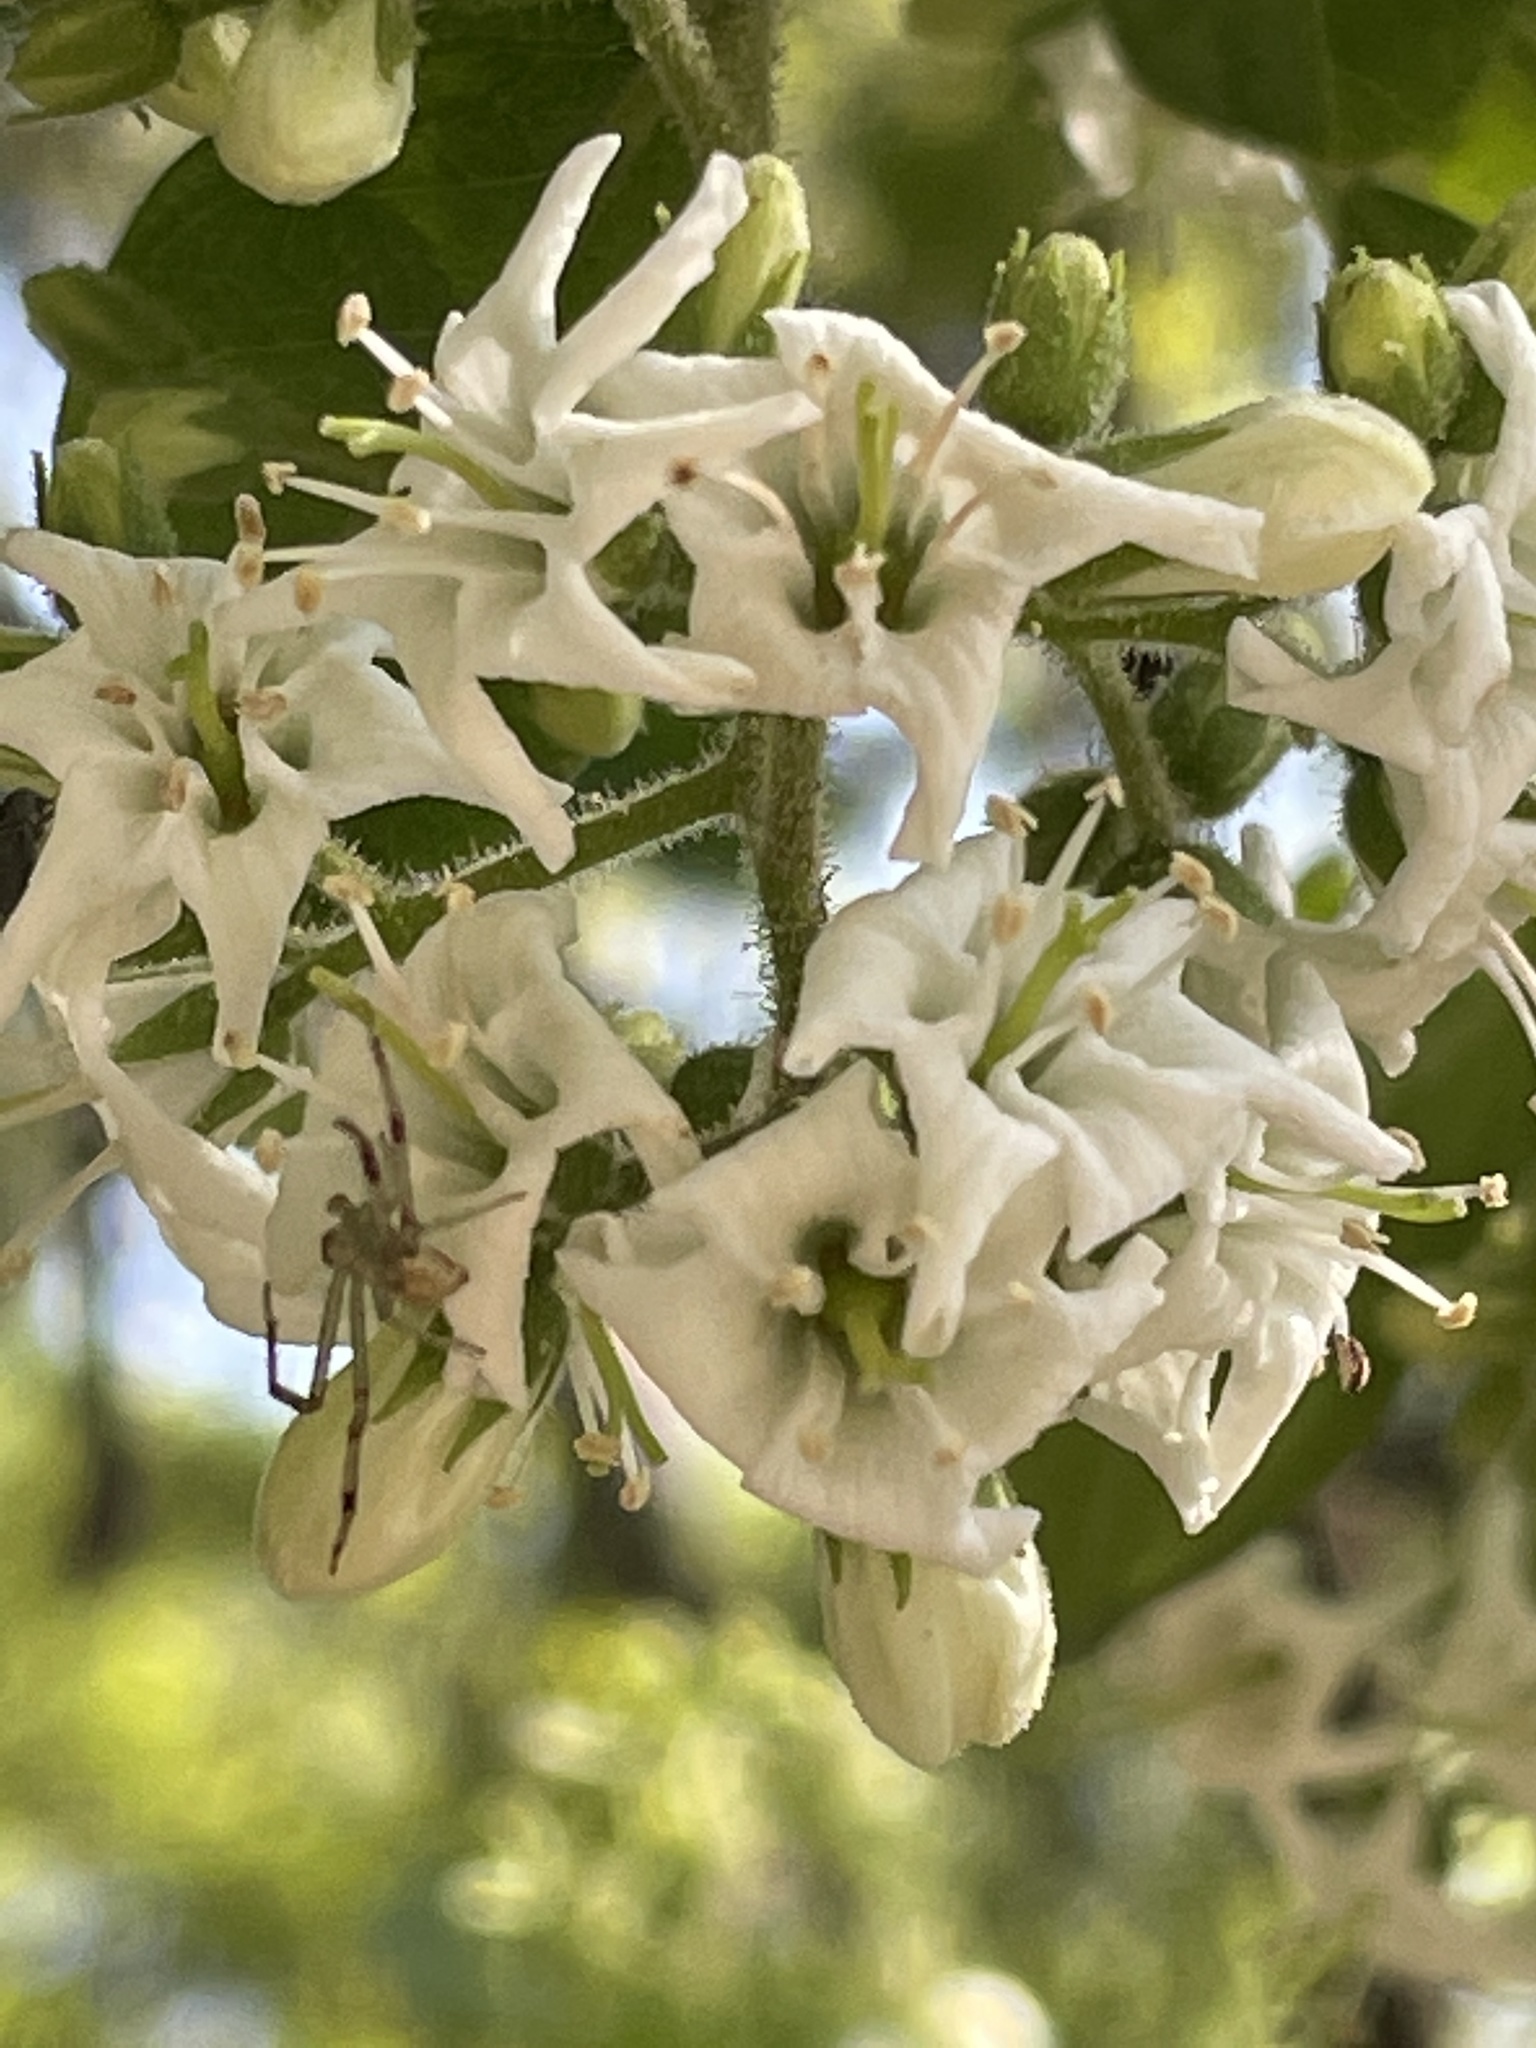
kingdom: Plantae
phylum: Tracheophyta
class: Magnoliopsida
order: Boraginales
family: Ehretiaceae
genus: Ehretia
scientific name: Ehretia anacua
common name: Sugarberry
